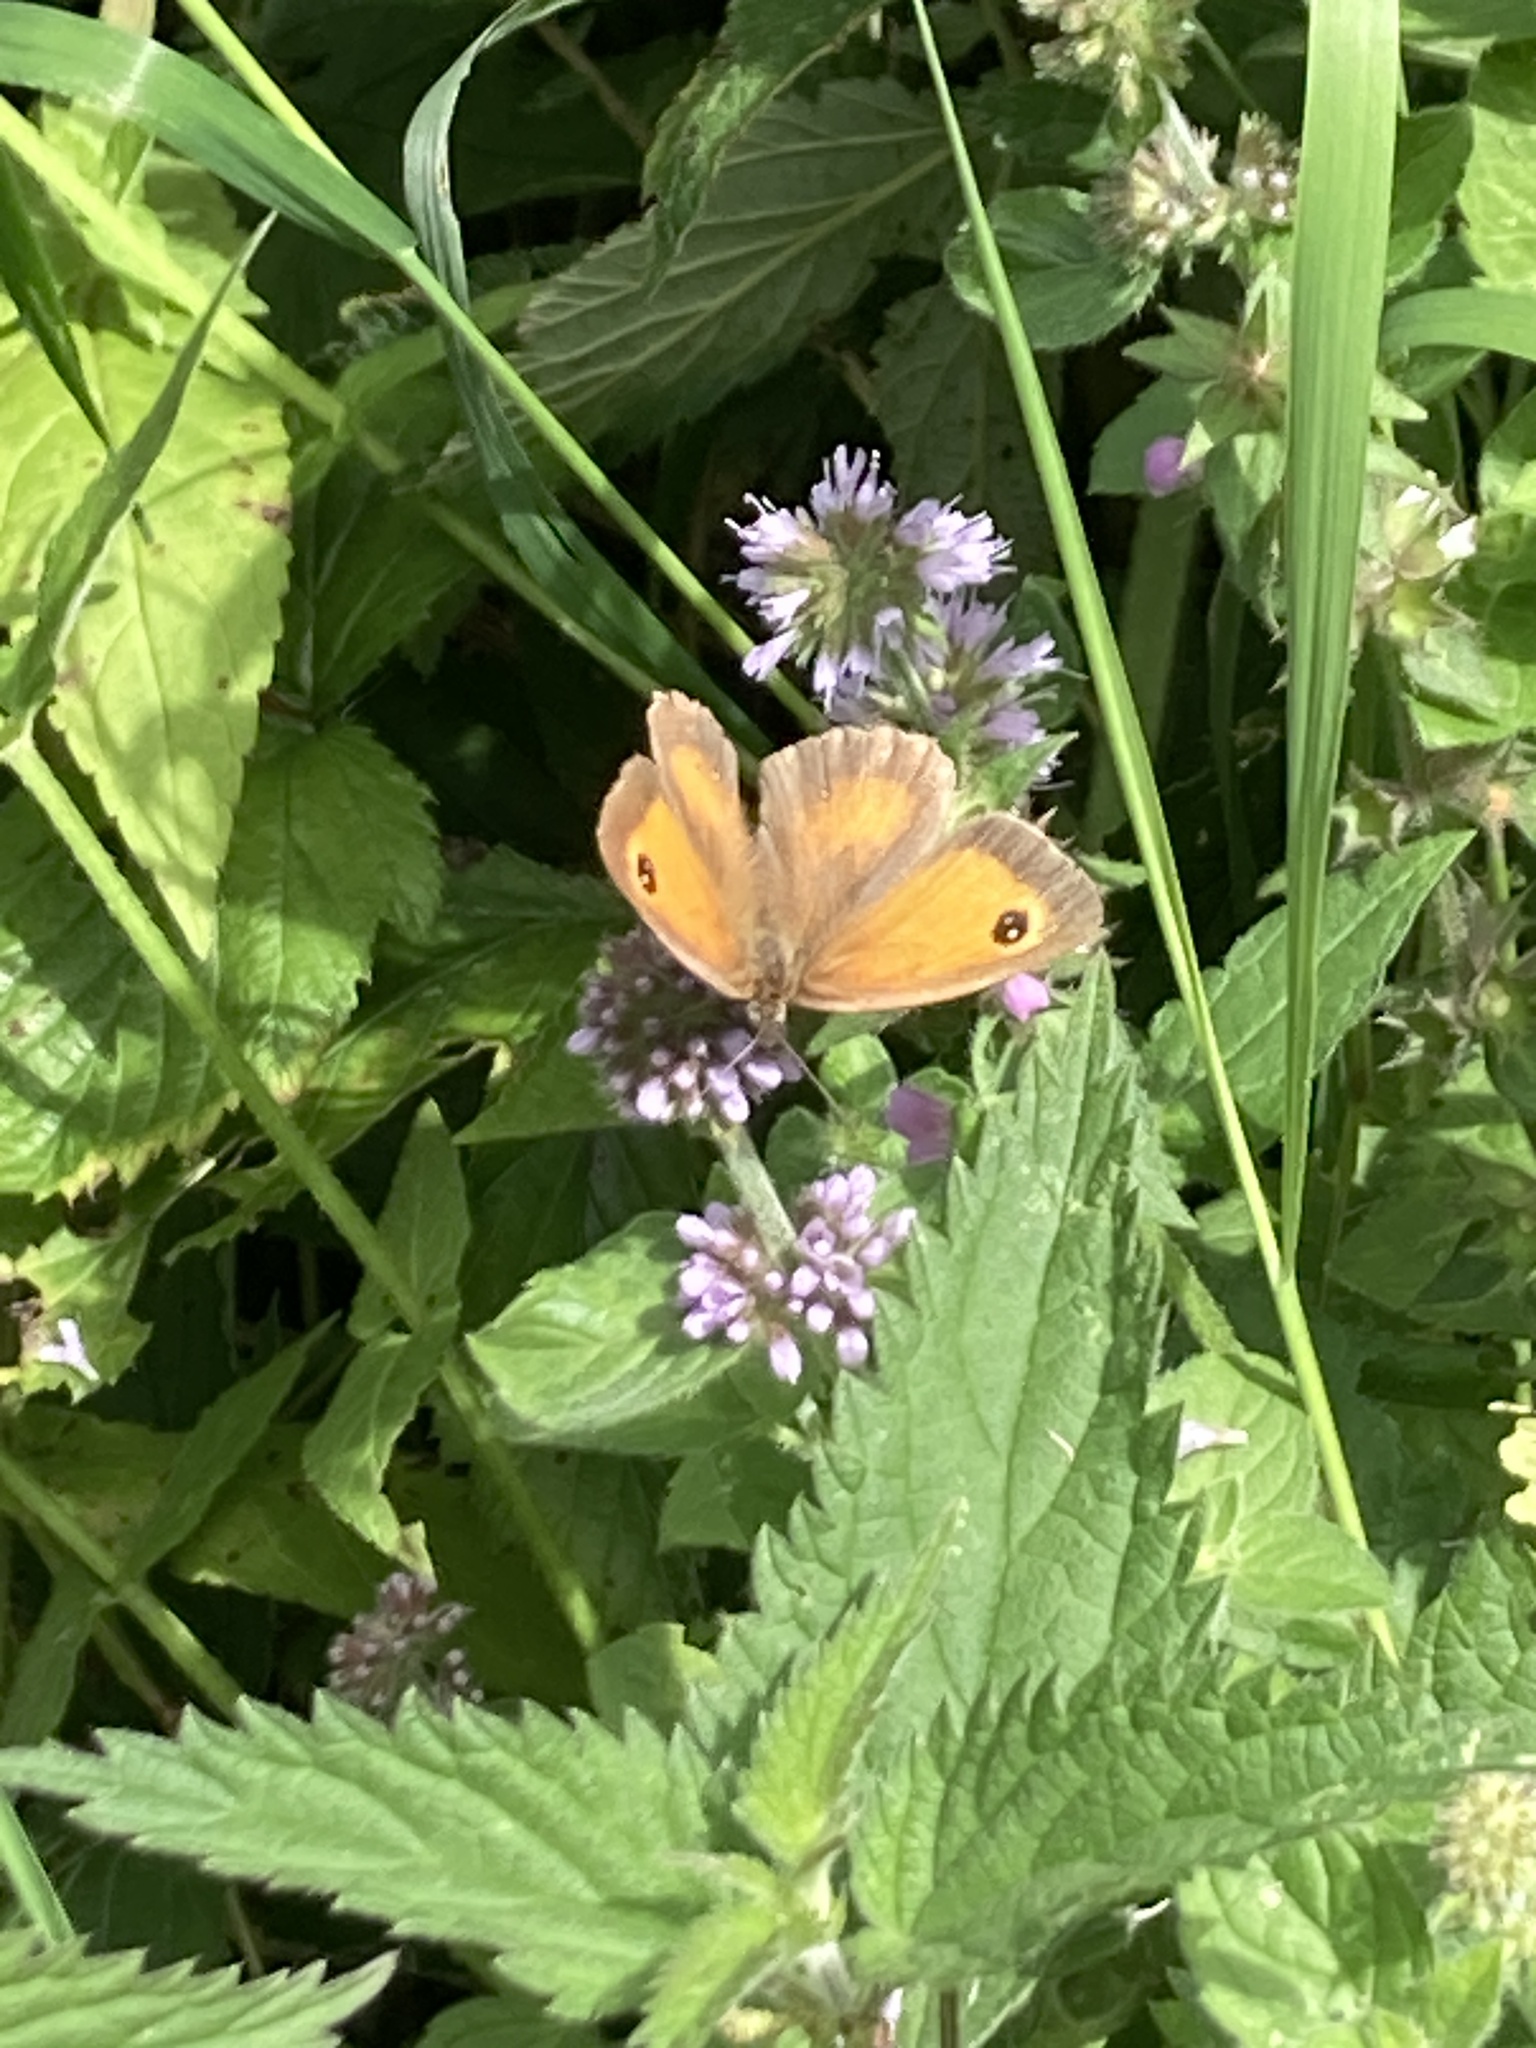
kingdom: Animalia
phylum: Arthropoda
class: Insecta
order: Lepidoptera
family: Nymphalidae
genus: Pyronia
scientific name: Pyronia tithonus
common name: Gatekeeper
